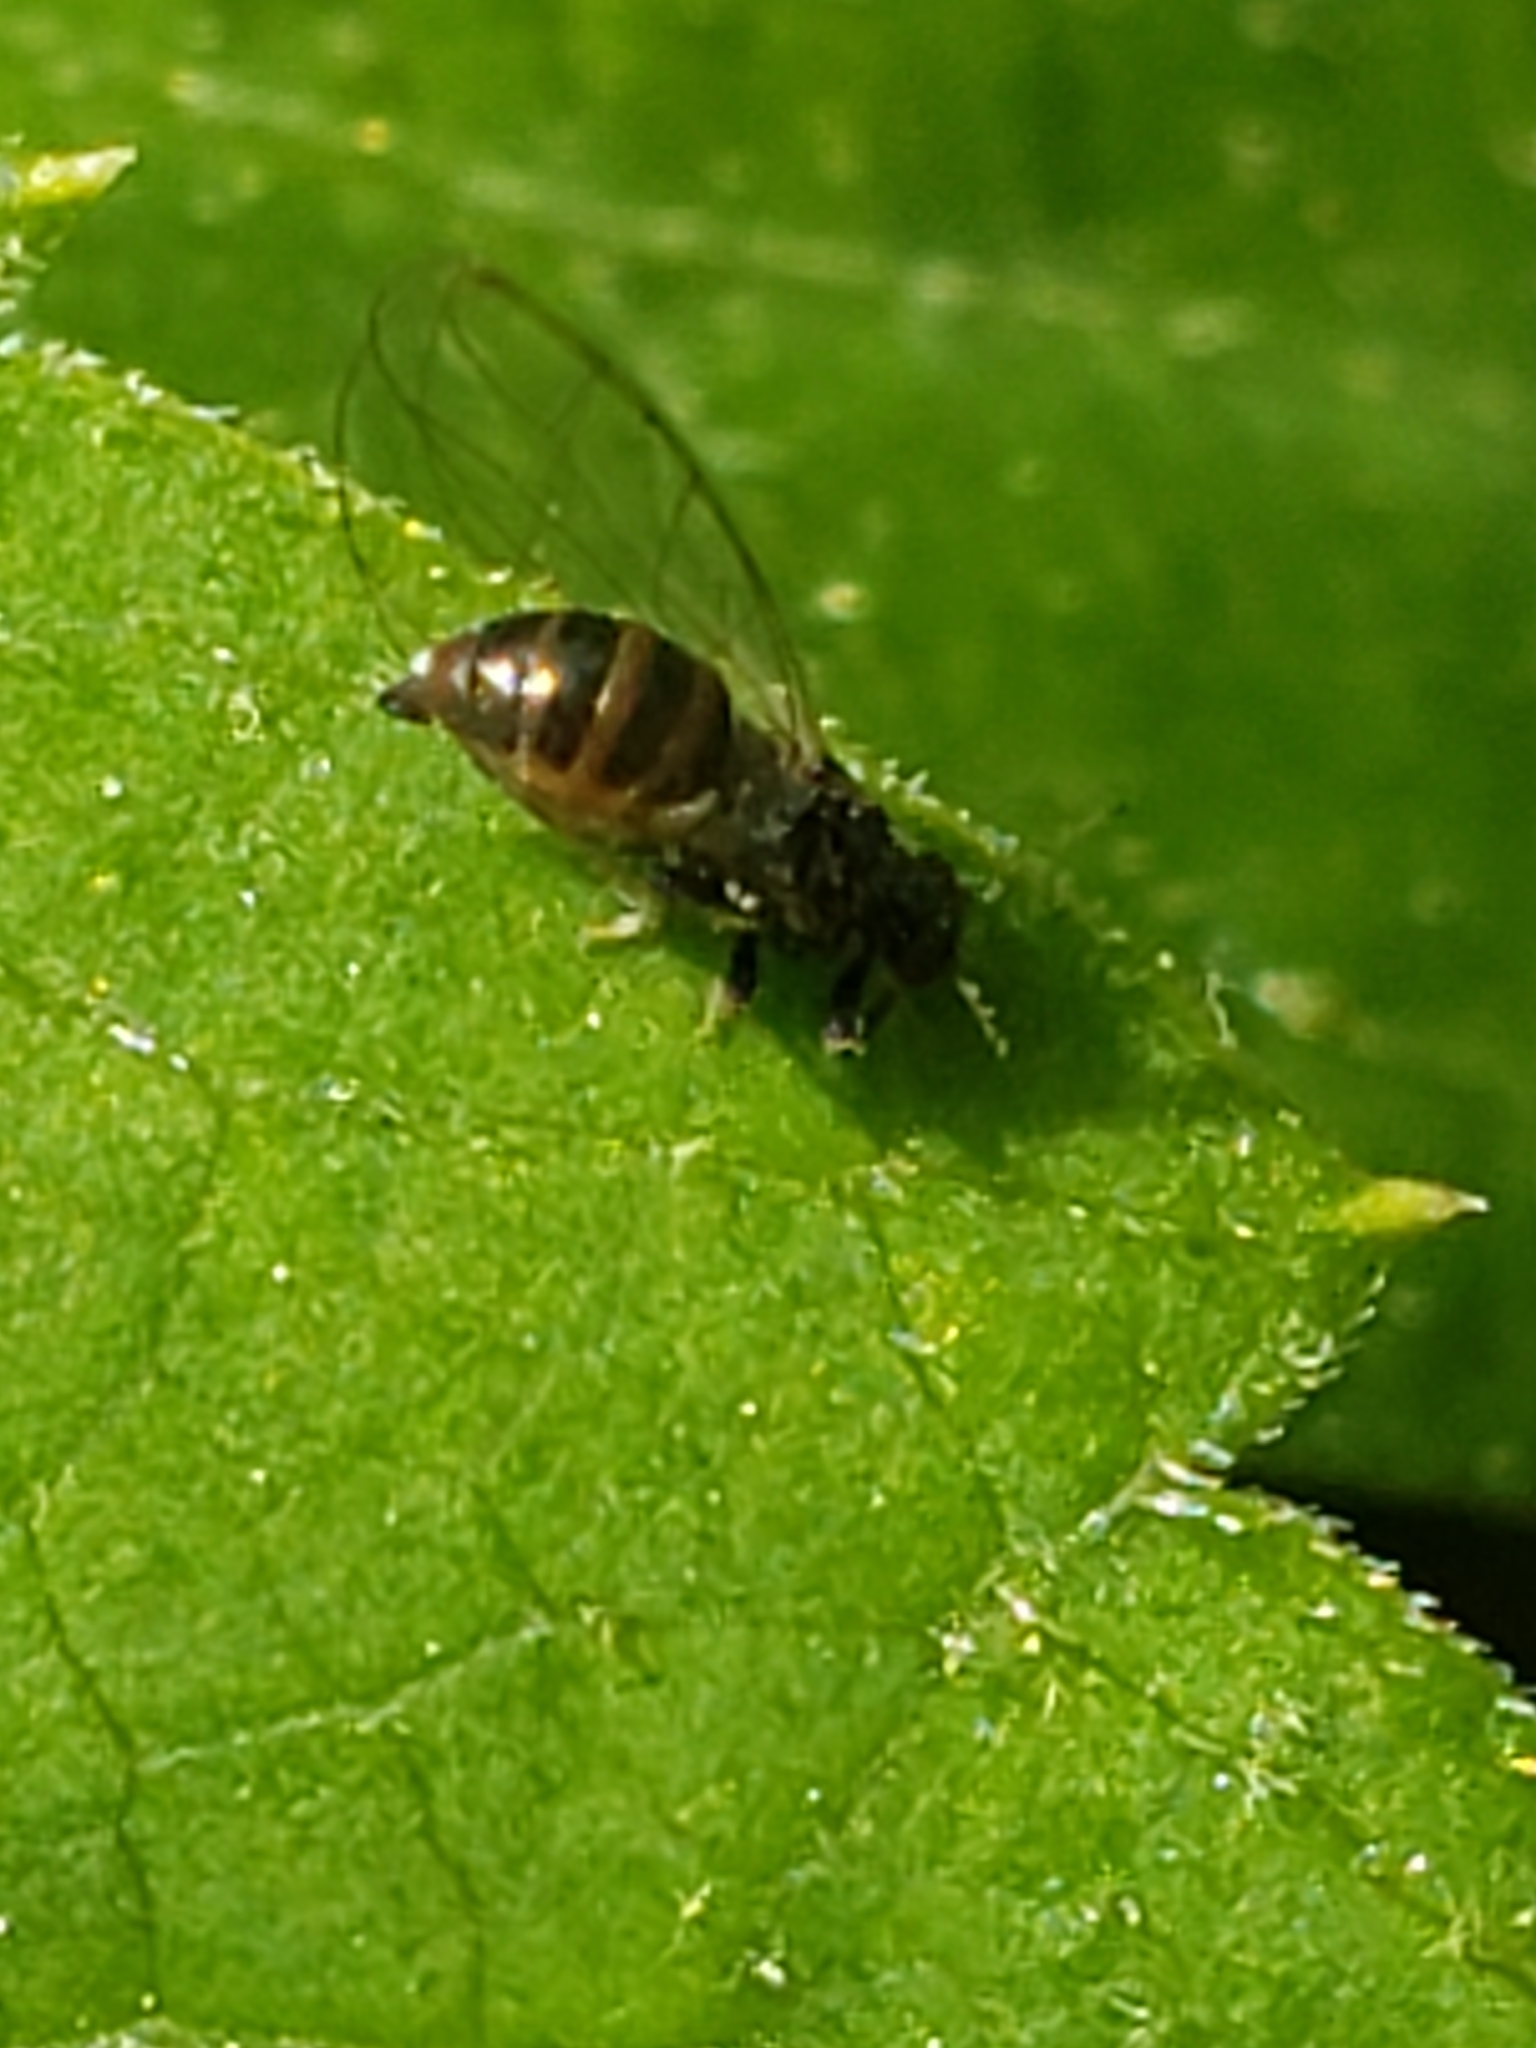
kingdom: Animalia
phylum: Arthropoda
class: Insecta
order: Hemiptera
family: Triozidae
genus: Baeoalitriozus
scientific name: Baeoalitriozus diospyri
